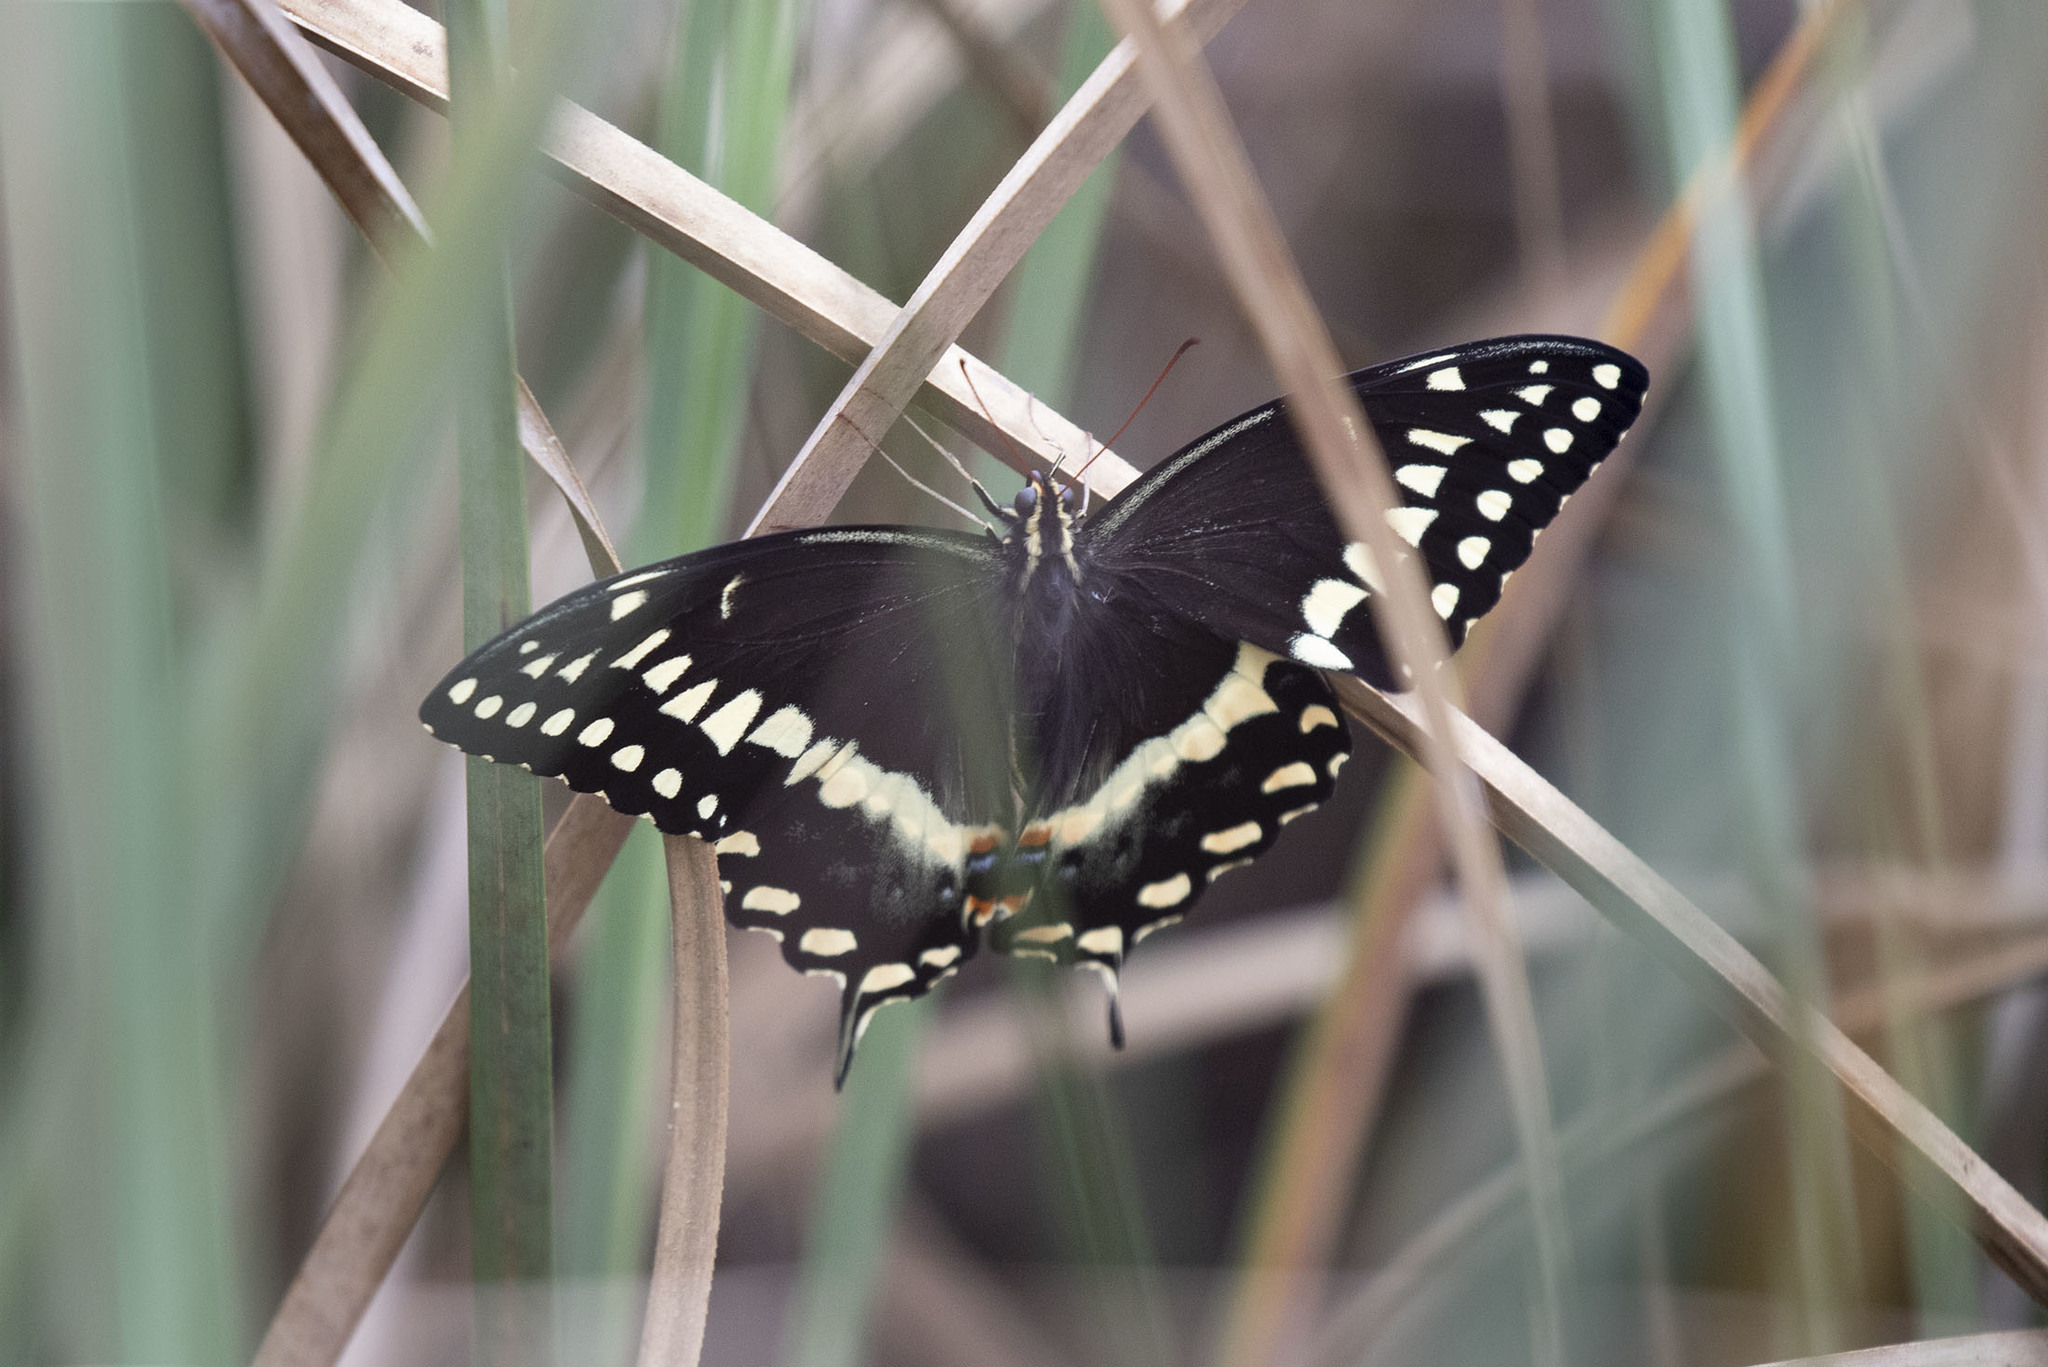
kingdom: Animalia
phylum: Arthropoda
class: Insecta
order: Lepidoptera
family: Papilionidae
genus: Papilio
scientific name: Papilio palamedes
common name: Palamedes swallowtail
